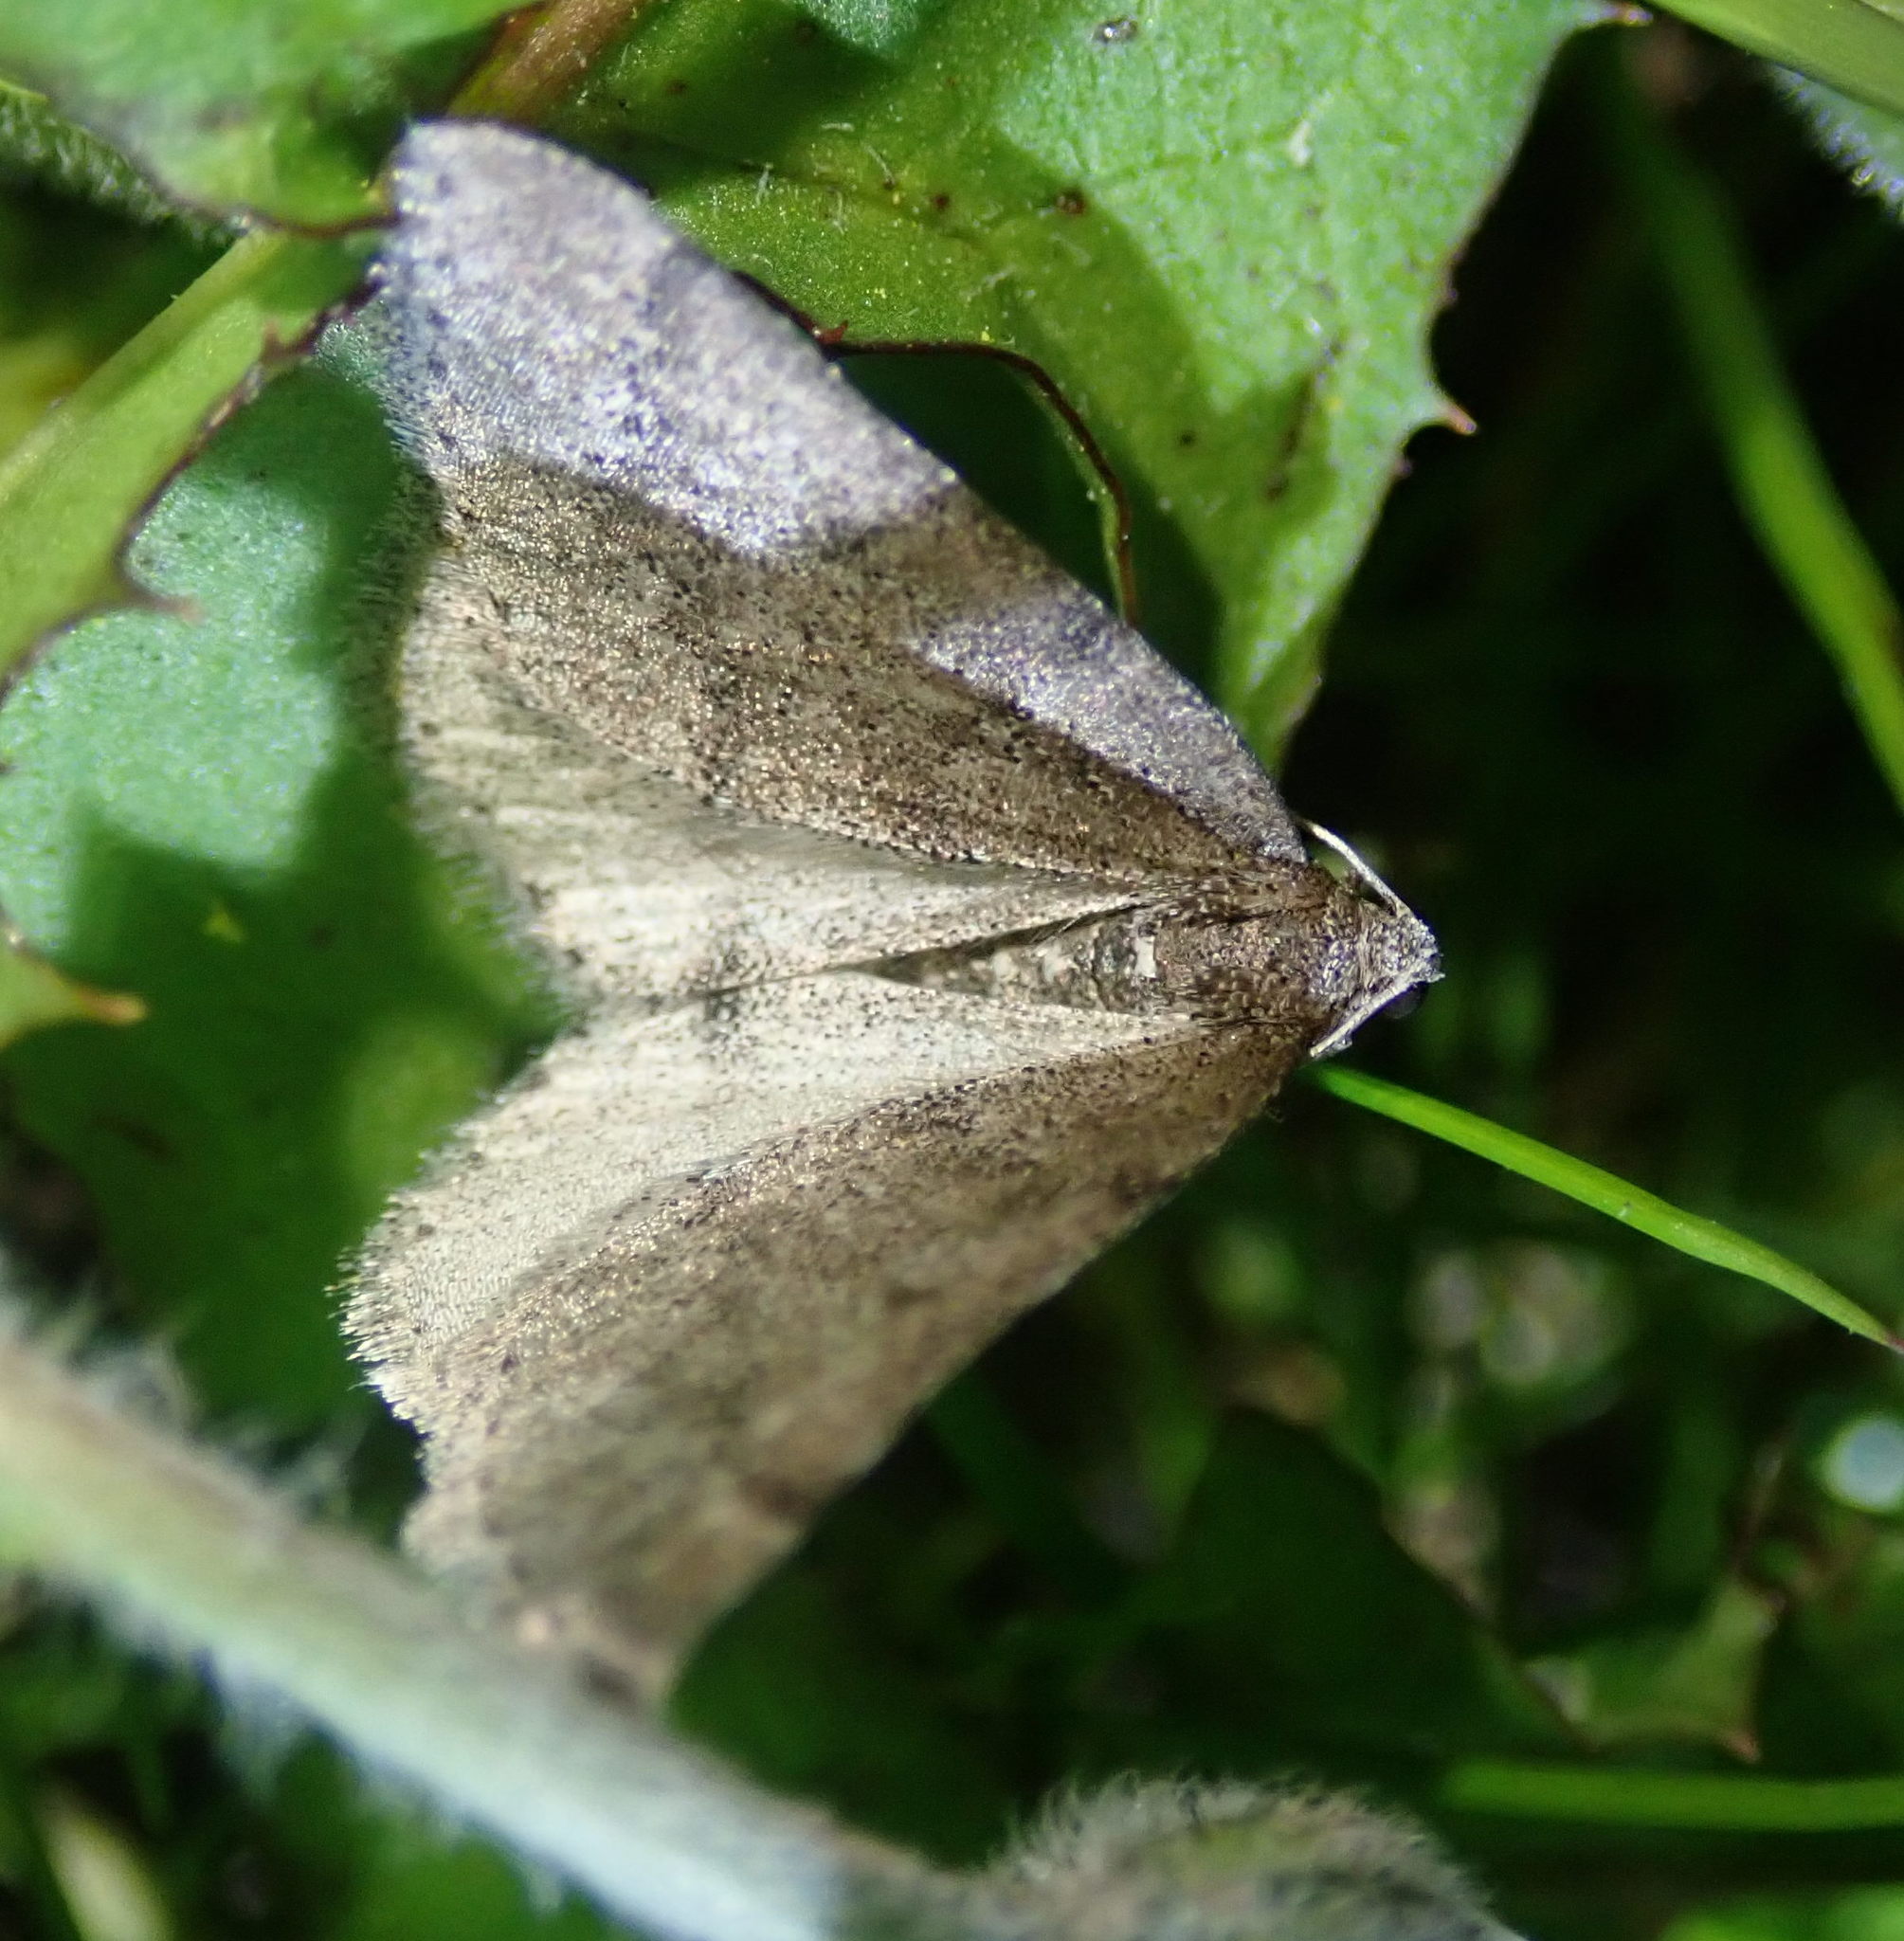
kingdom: Animalia
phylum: Arthropoda
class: Insecta
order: Lepidoptera
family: Geometridae
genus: Aleucis
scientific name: Aleucis distinctata
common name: Sloe carpet
